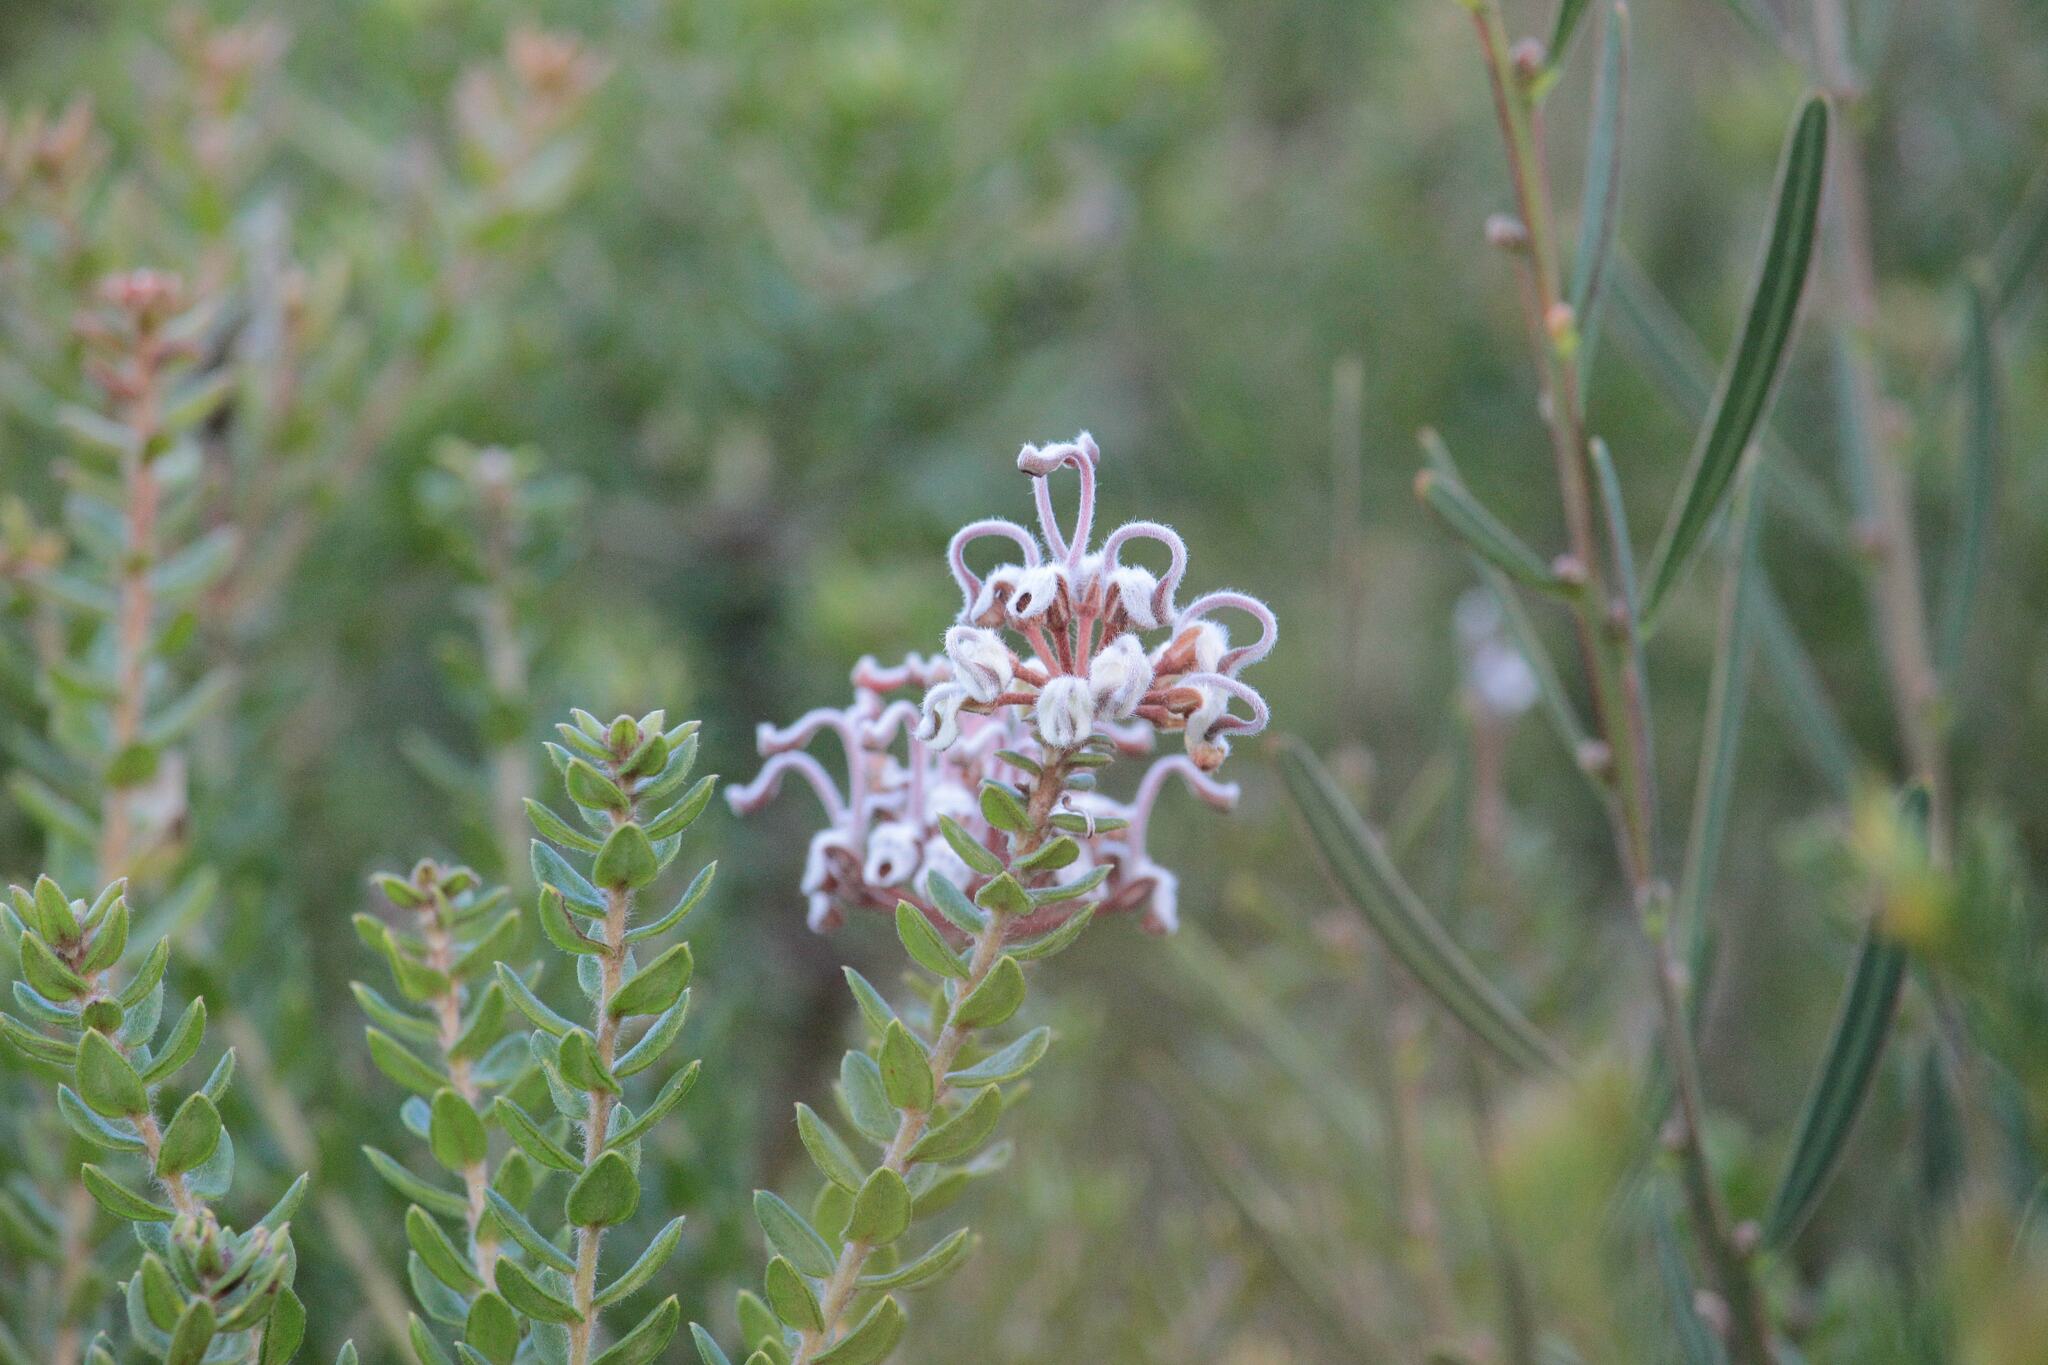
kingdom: Plantae
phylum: Tracheophyta
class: Magnoliopsida
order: Proteales
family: Proteaceae
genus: Grevillea
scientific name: Grevillea buxifolia
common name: Grey spiderflower
